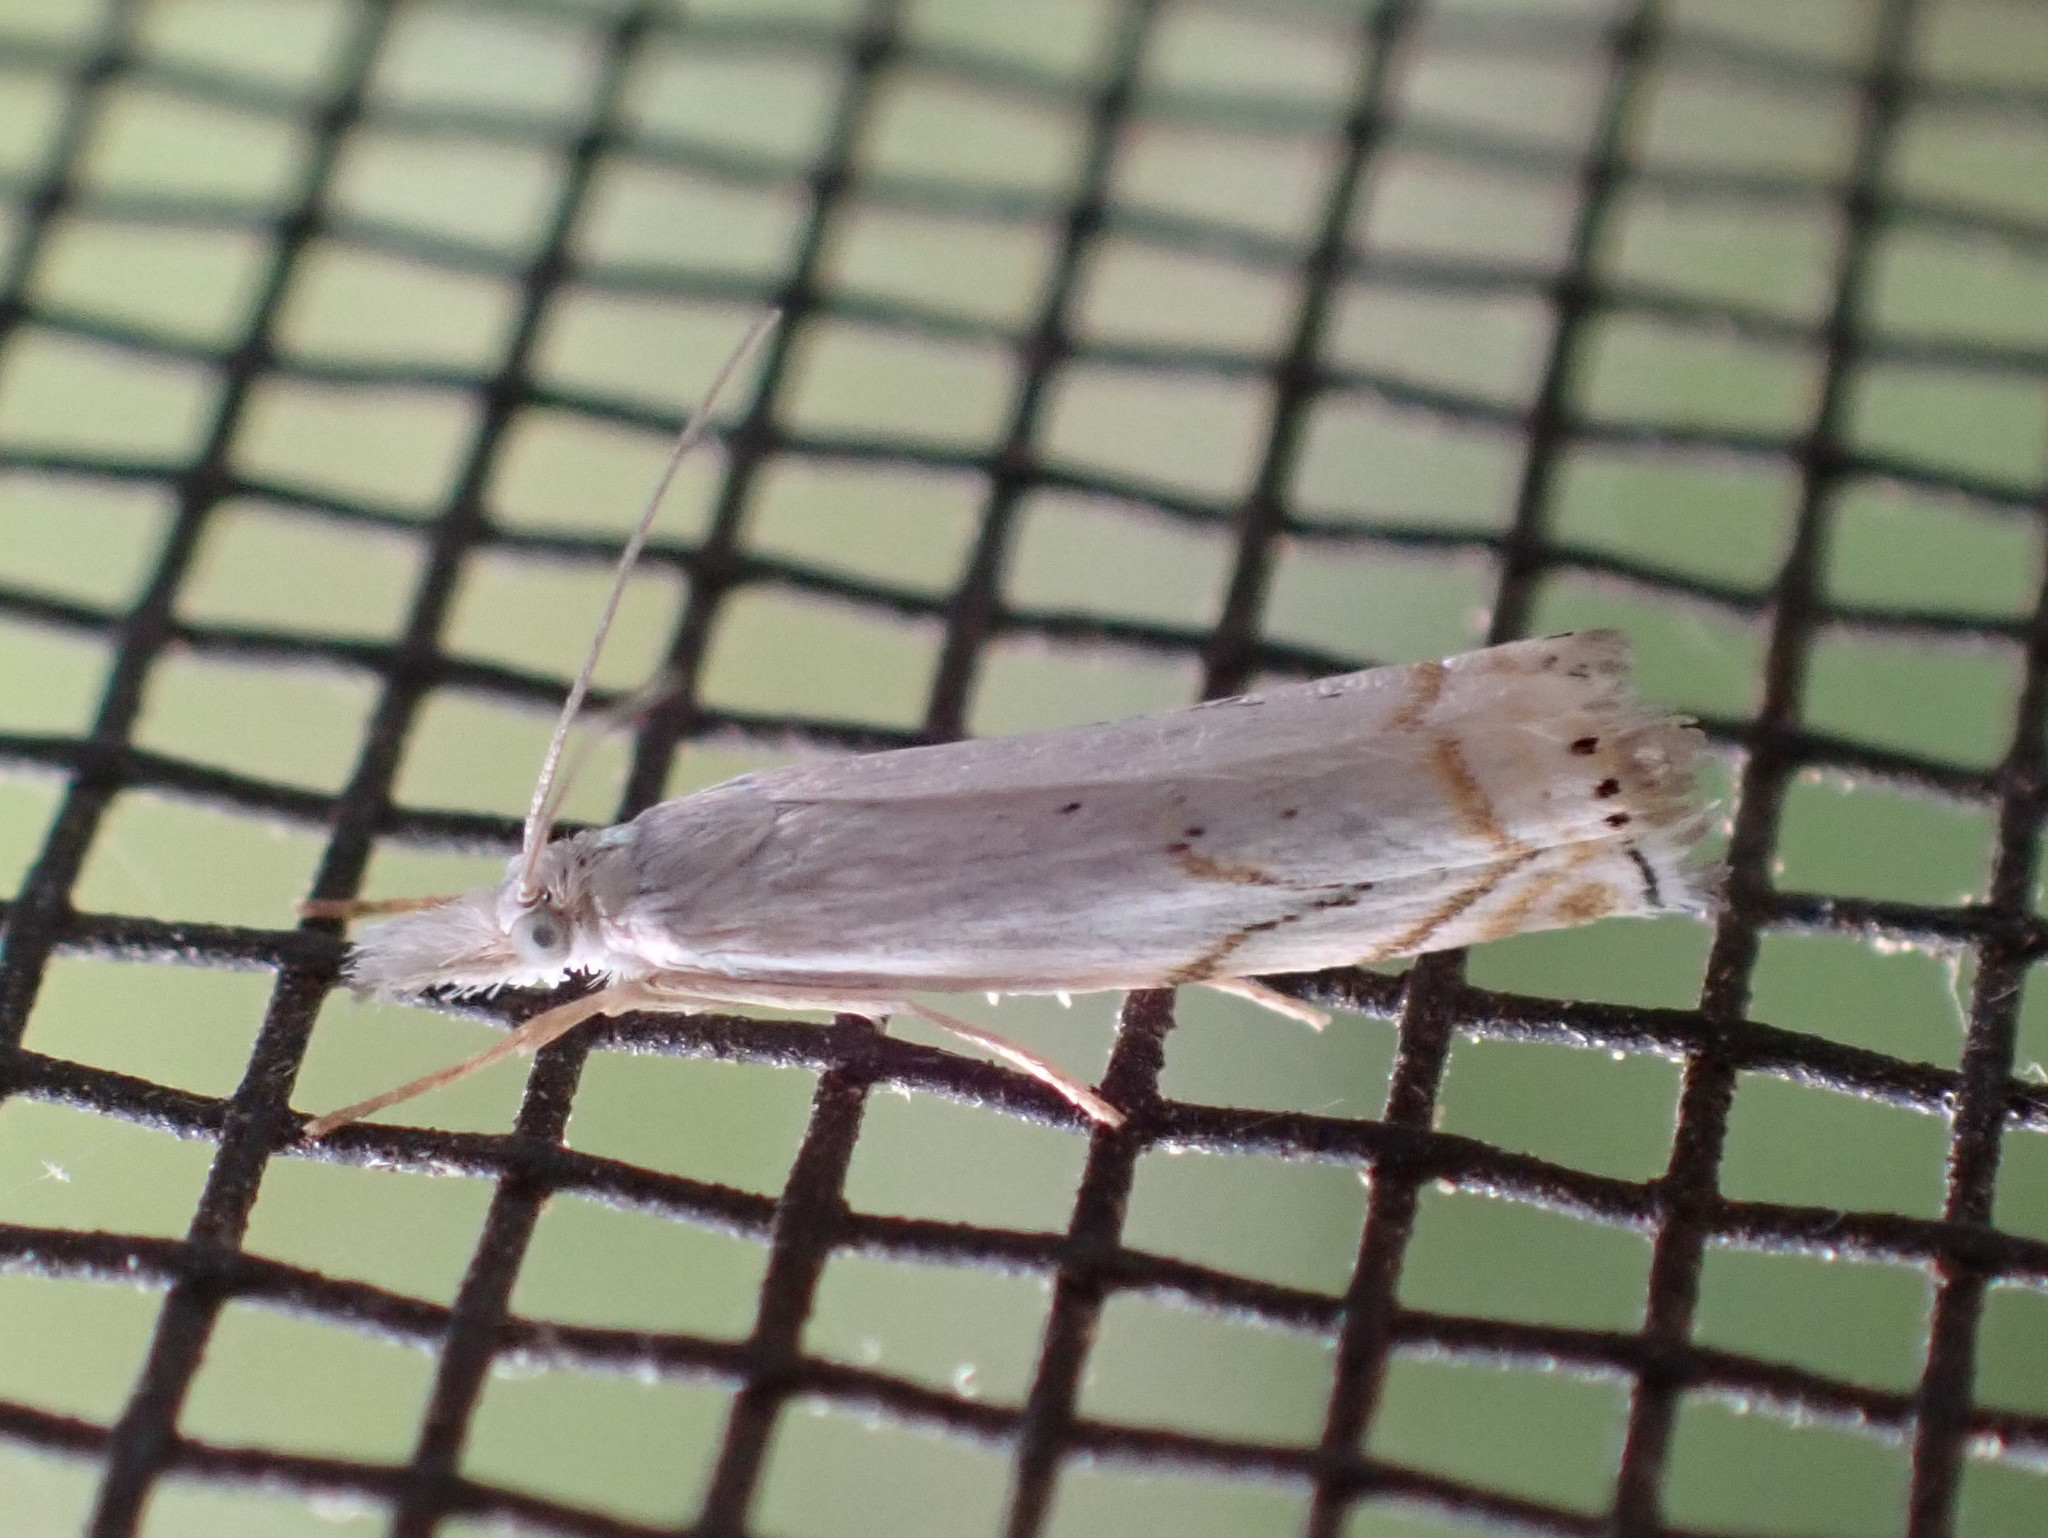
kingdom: Animalia
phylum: Arthropoda
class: Insecta
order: Lepidoptera
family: Crambidae
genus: Crambus
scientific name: Crambus albellus
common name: Small white grass-veneer
